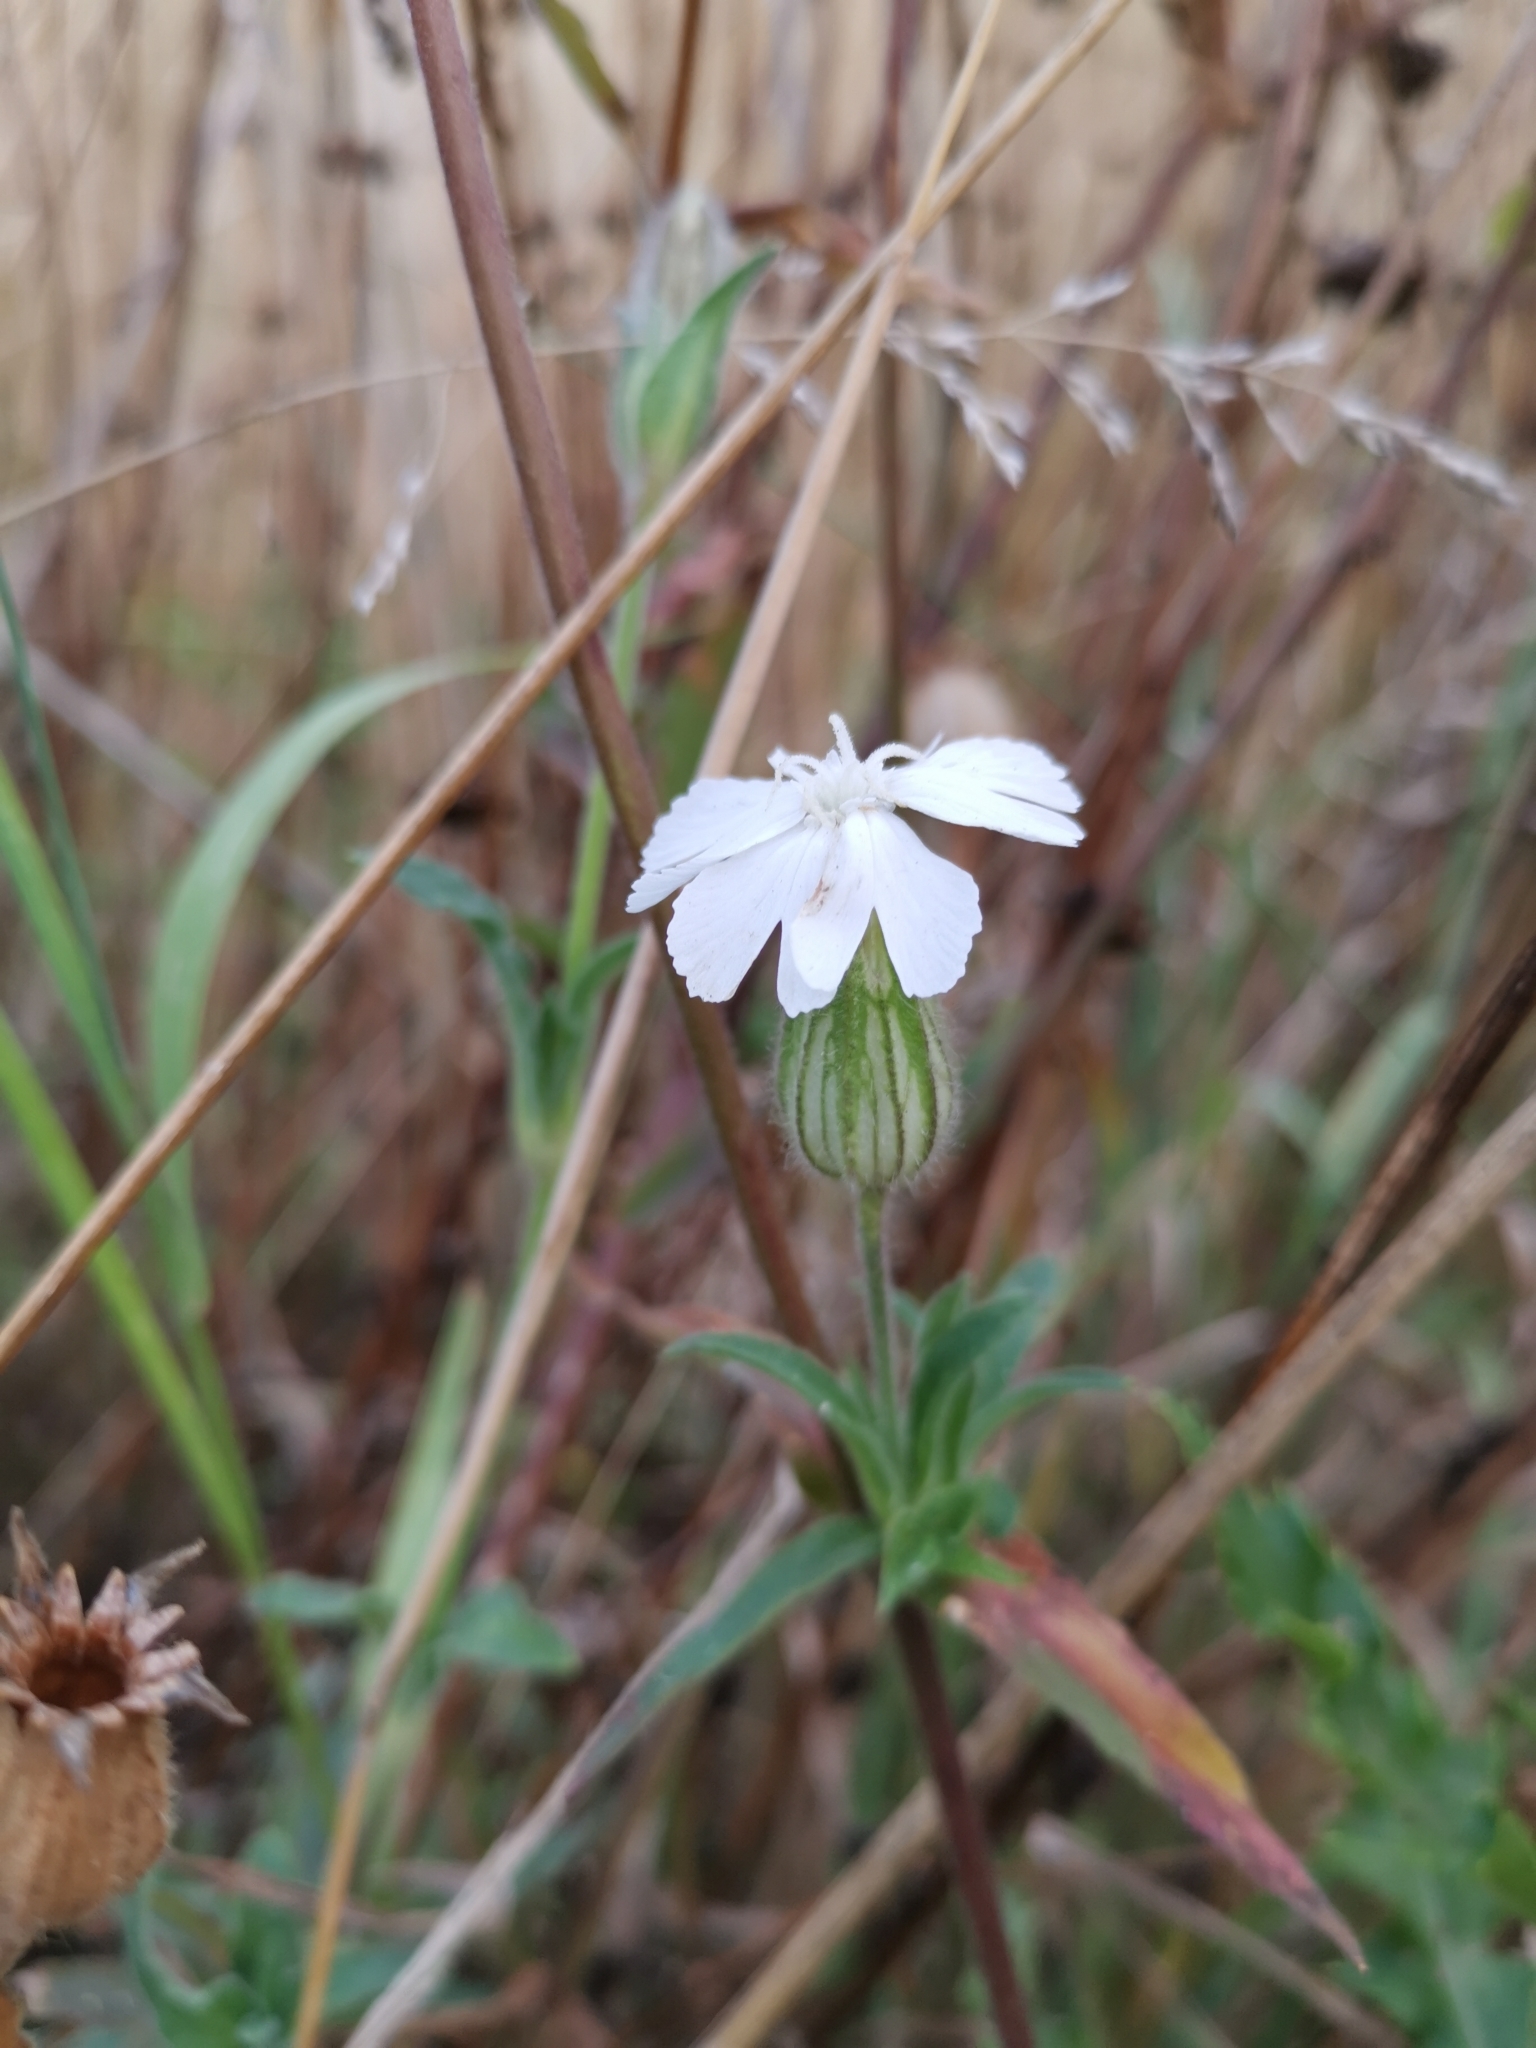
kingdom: Plantae
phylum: Tracheophyta
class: Magnoliopsida
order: Caryophyllales
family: Caryophyllaceae
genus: Silene
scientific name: Silene latifolia
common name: White campion
